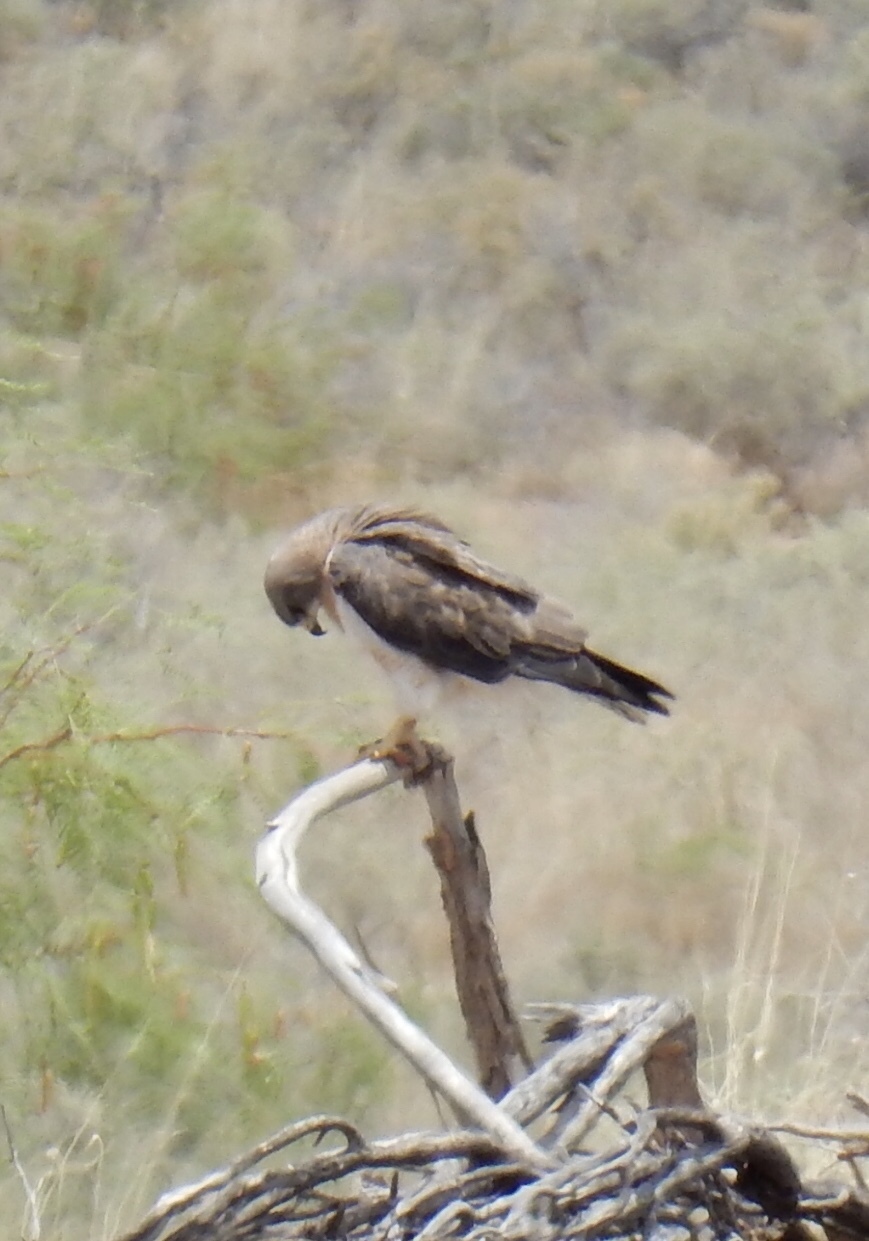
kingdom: Animalia
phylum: Chordata
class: Aves
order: Accipitriformes
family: Accipitridae
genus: Buteo
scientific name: Buteo swainsoni
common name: Swainson's hawk
